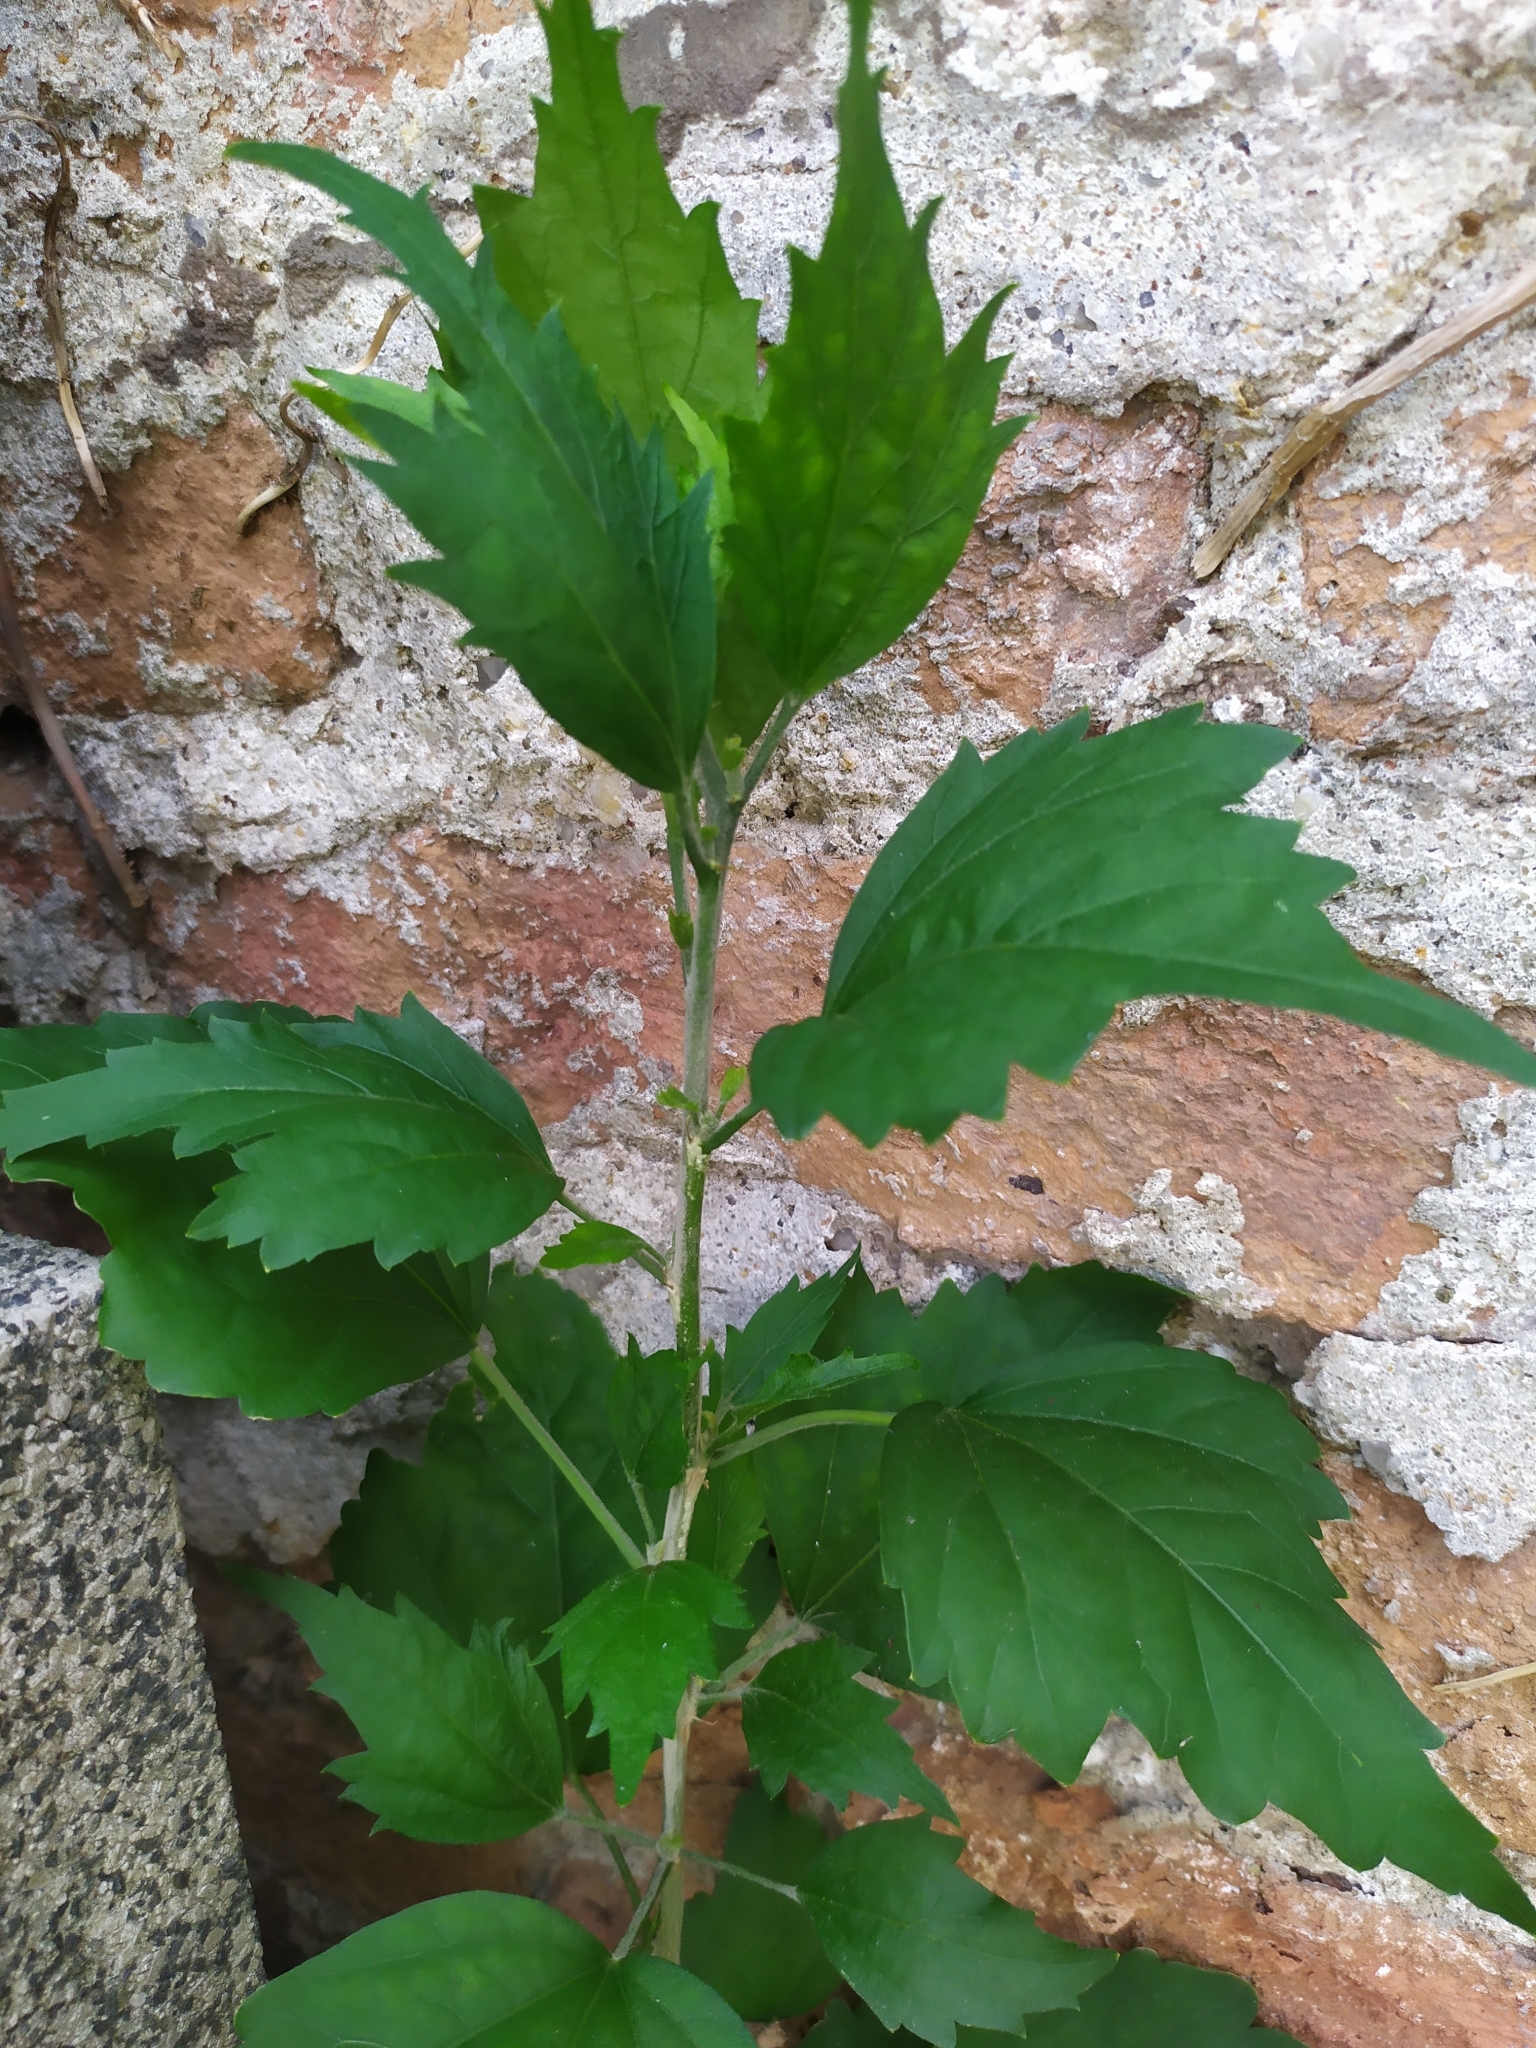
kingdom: Plantae
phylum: Tracheophyta
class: Magnoliopsida
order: Malvales
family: Malvaceae
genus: Hibiscus
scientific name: Hibiscus syriacus
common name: Syrian ketmia
